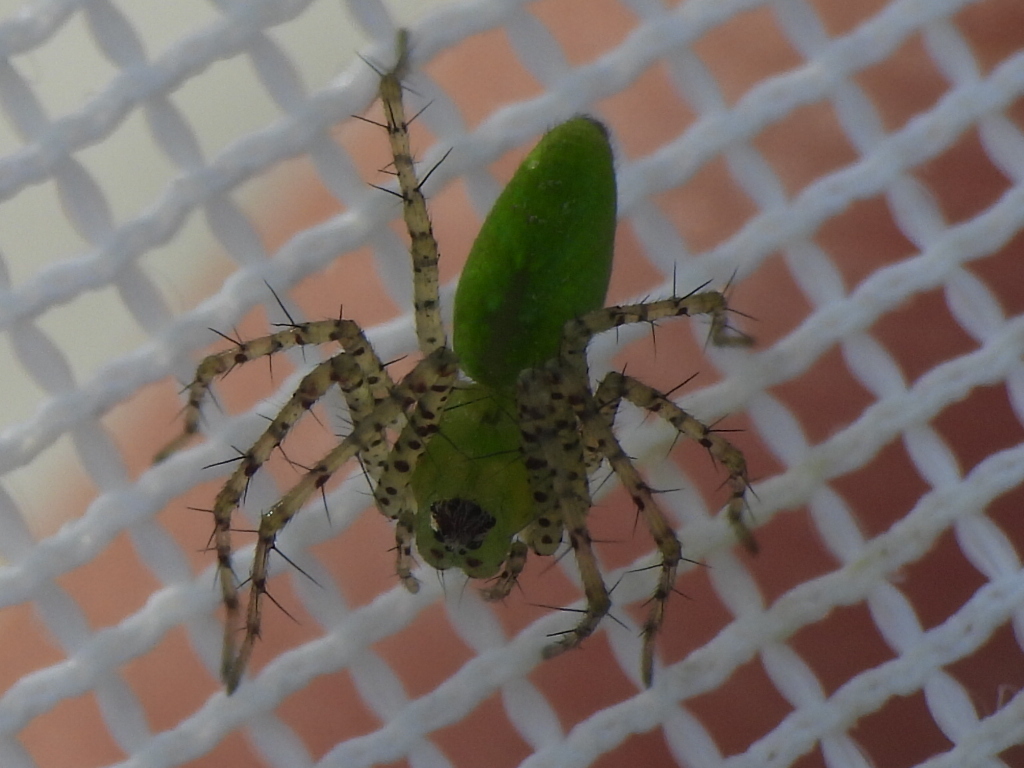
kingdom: Animalia
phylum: Arthropoda
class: Arachnida
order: Araneae
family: Oxyopidae
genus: Peucetia
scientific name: Peucetia viridans
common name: Lynx spiders
